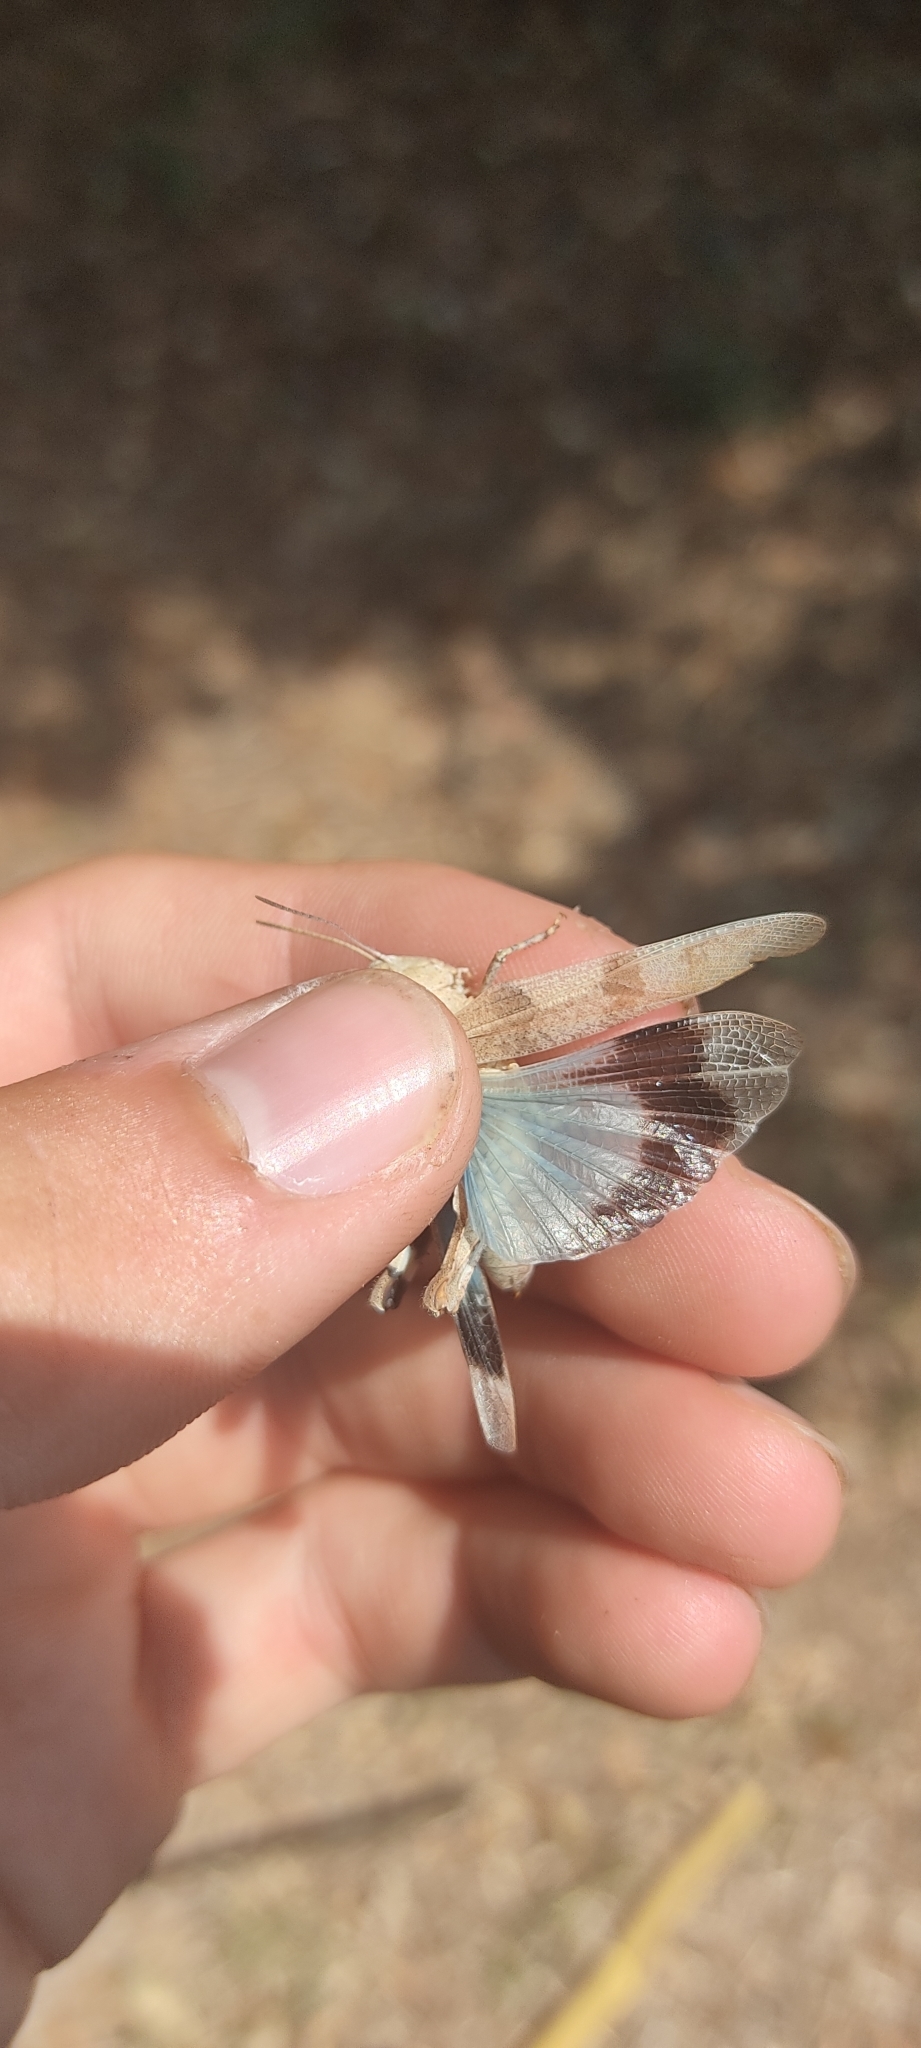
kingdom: Animalia
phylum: Arthropoda
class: Insecta
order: Orthoptera
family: Acrididae
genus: Oedipoda
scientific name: Oedipoda caerulescens
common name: Blue-winged grasshopper
